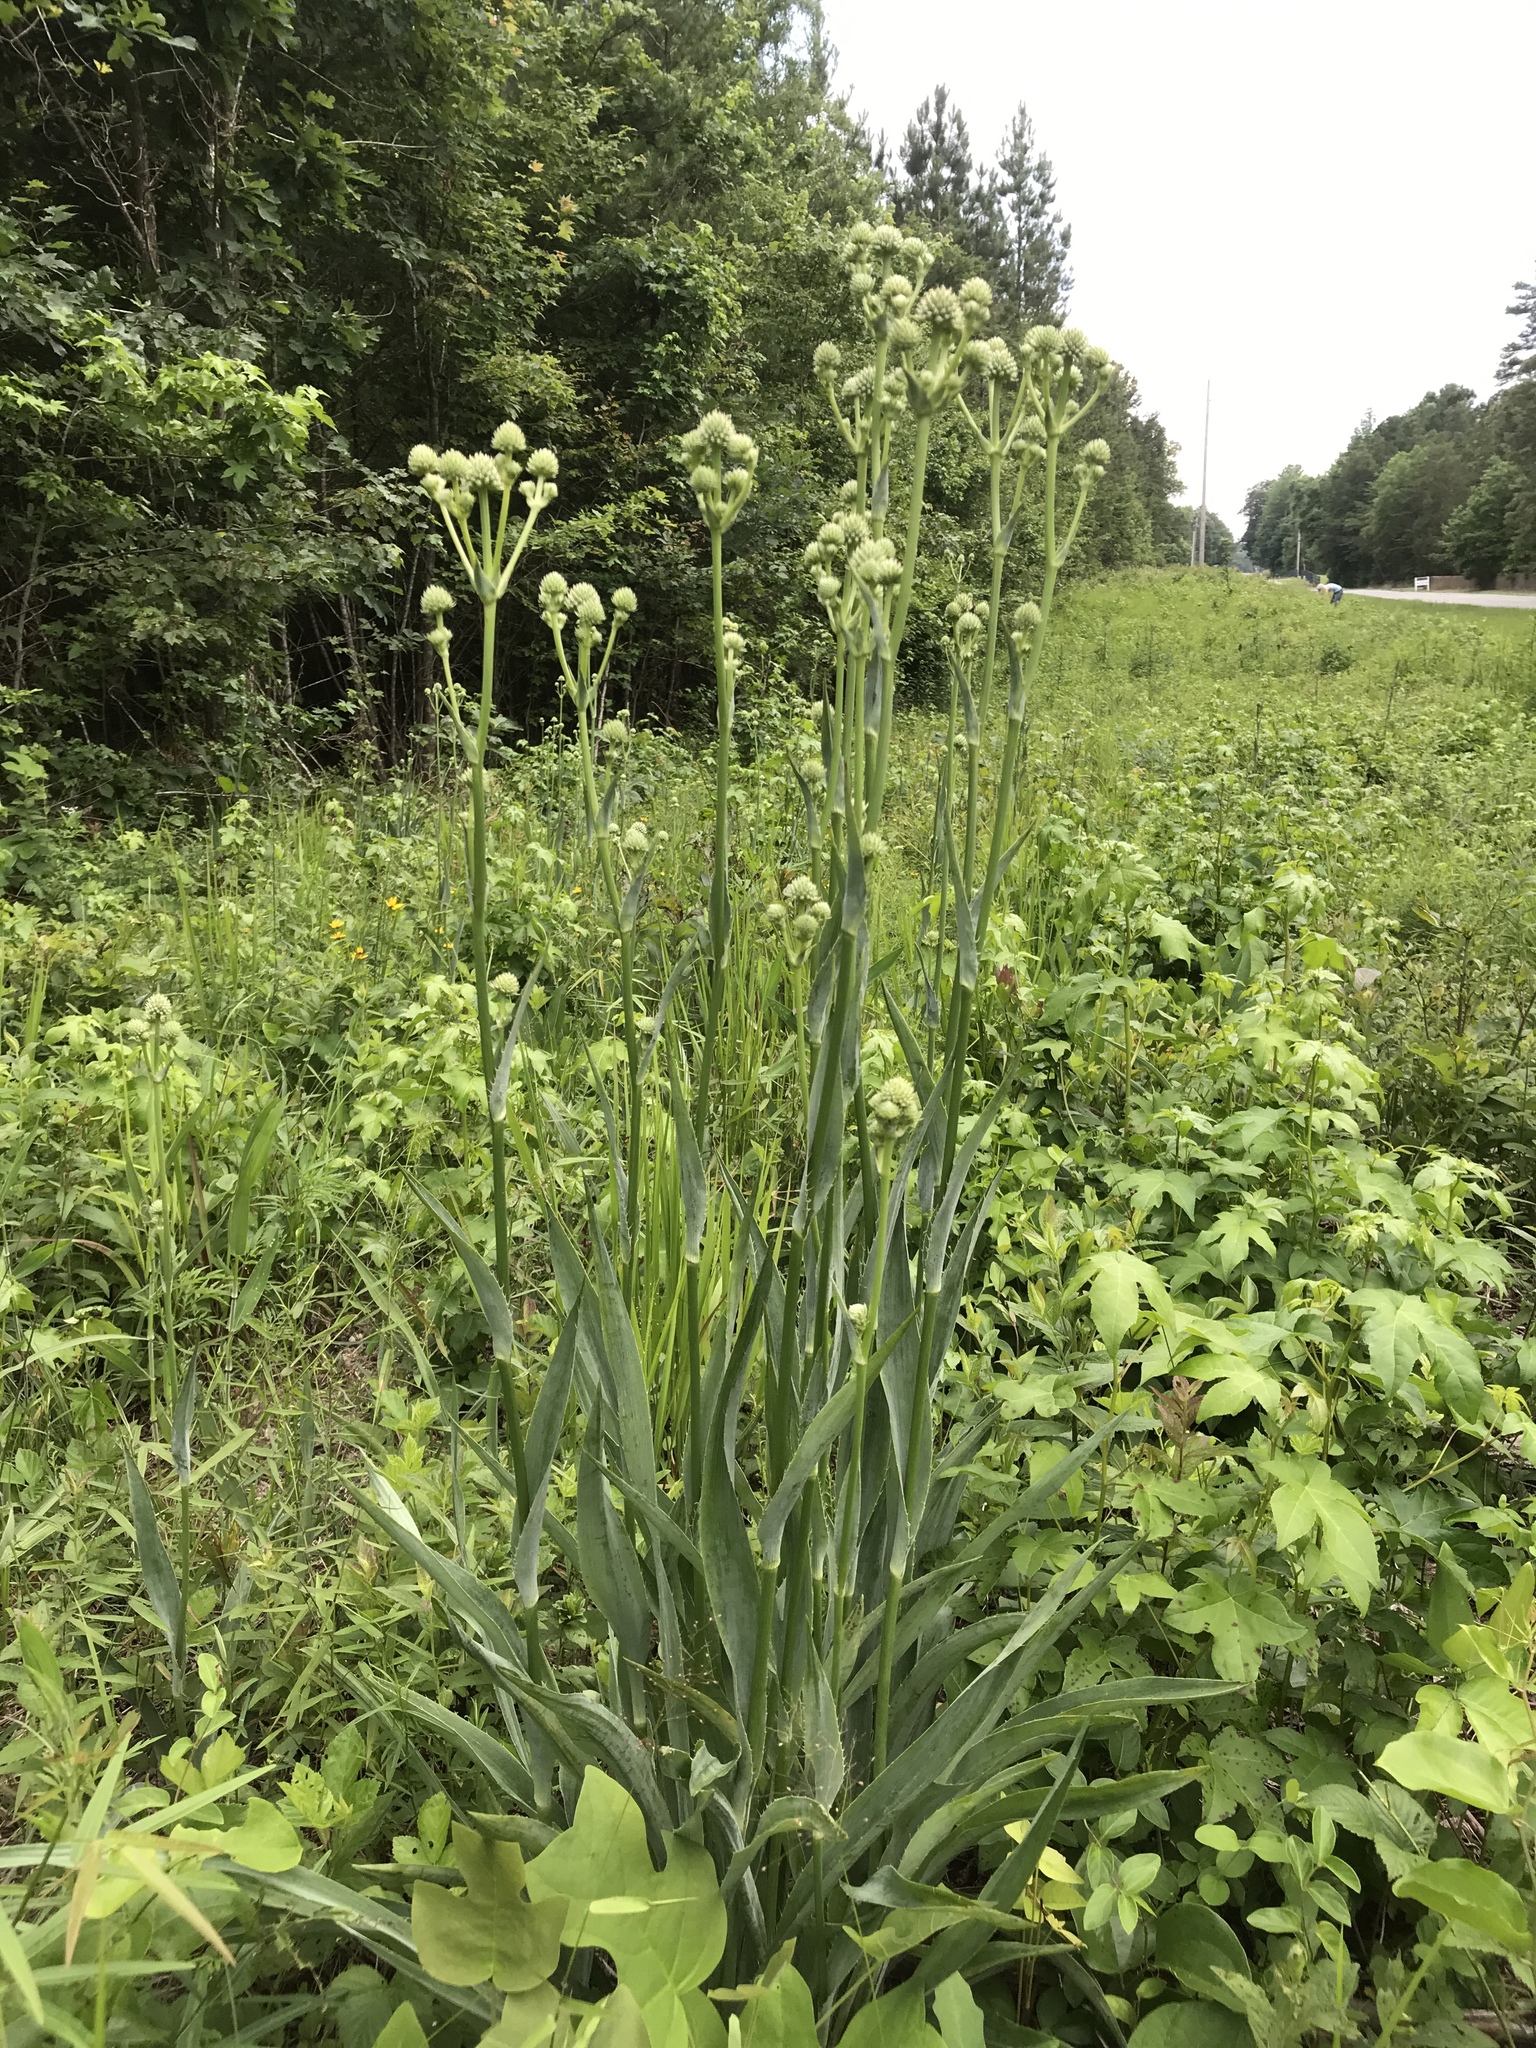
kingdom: Plantae
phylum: Tracheophyta
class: Magnoliopsida
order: Apiales
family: Apiaceae
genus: Eryngium
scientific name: Eryngium yuccifolium
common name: Button eryngo
